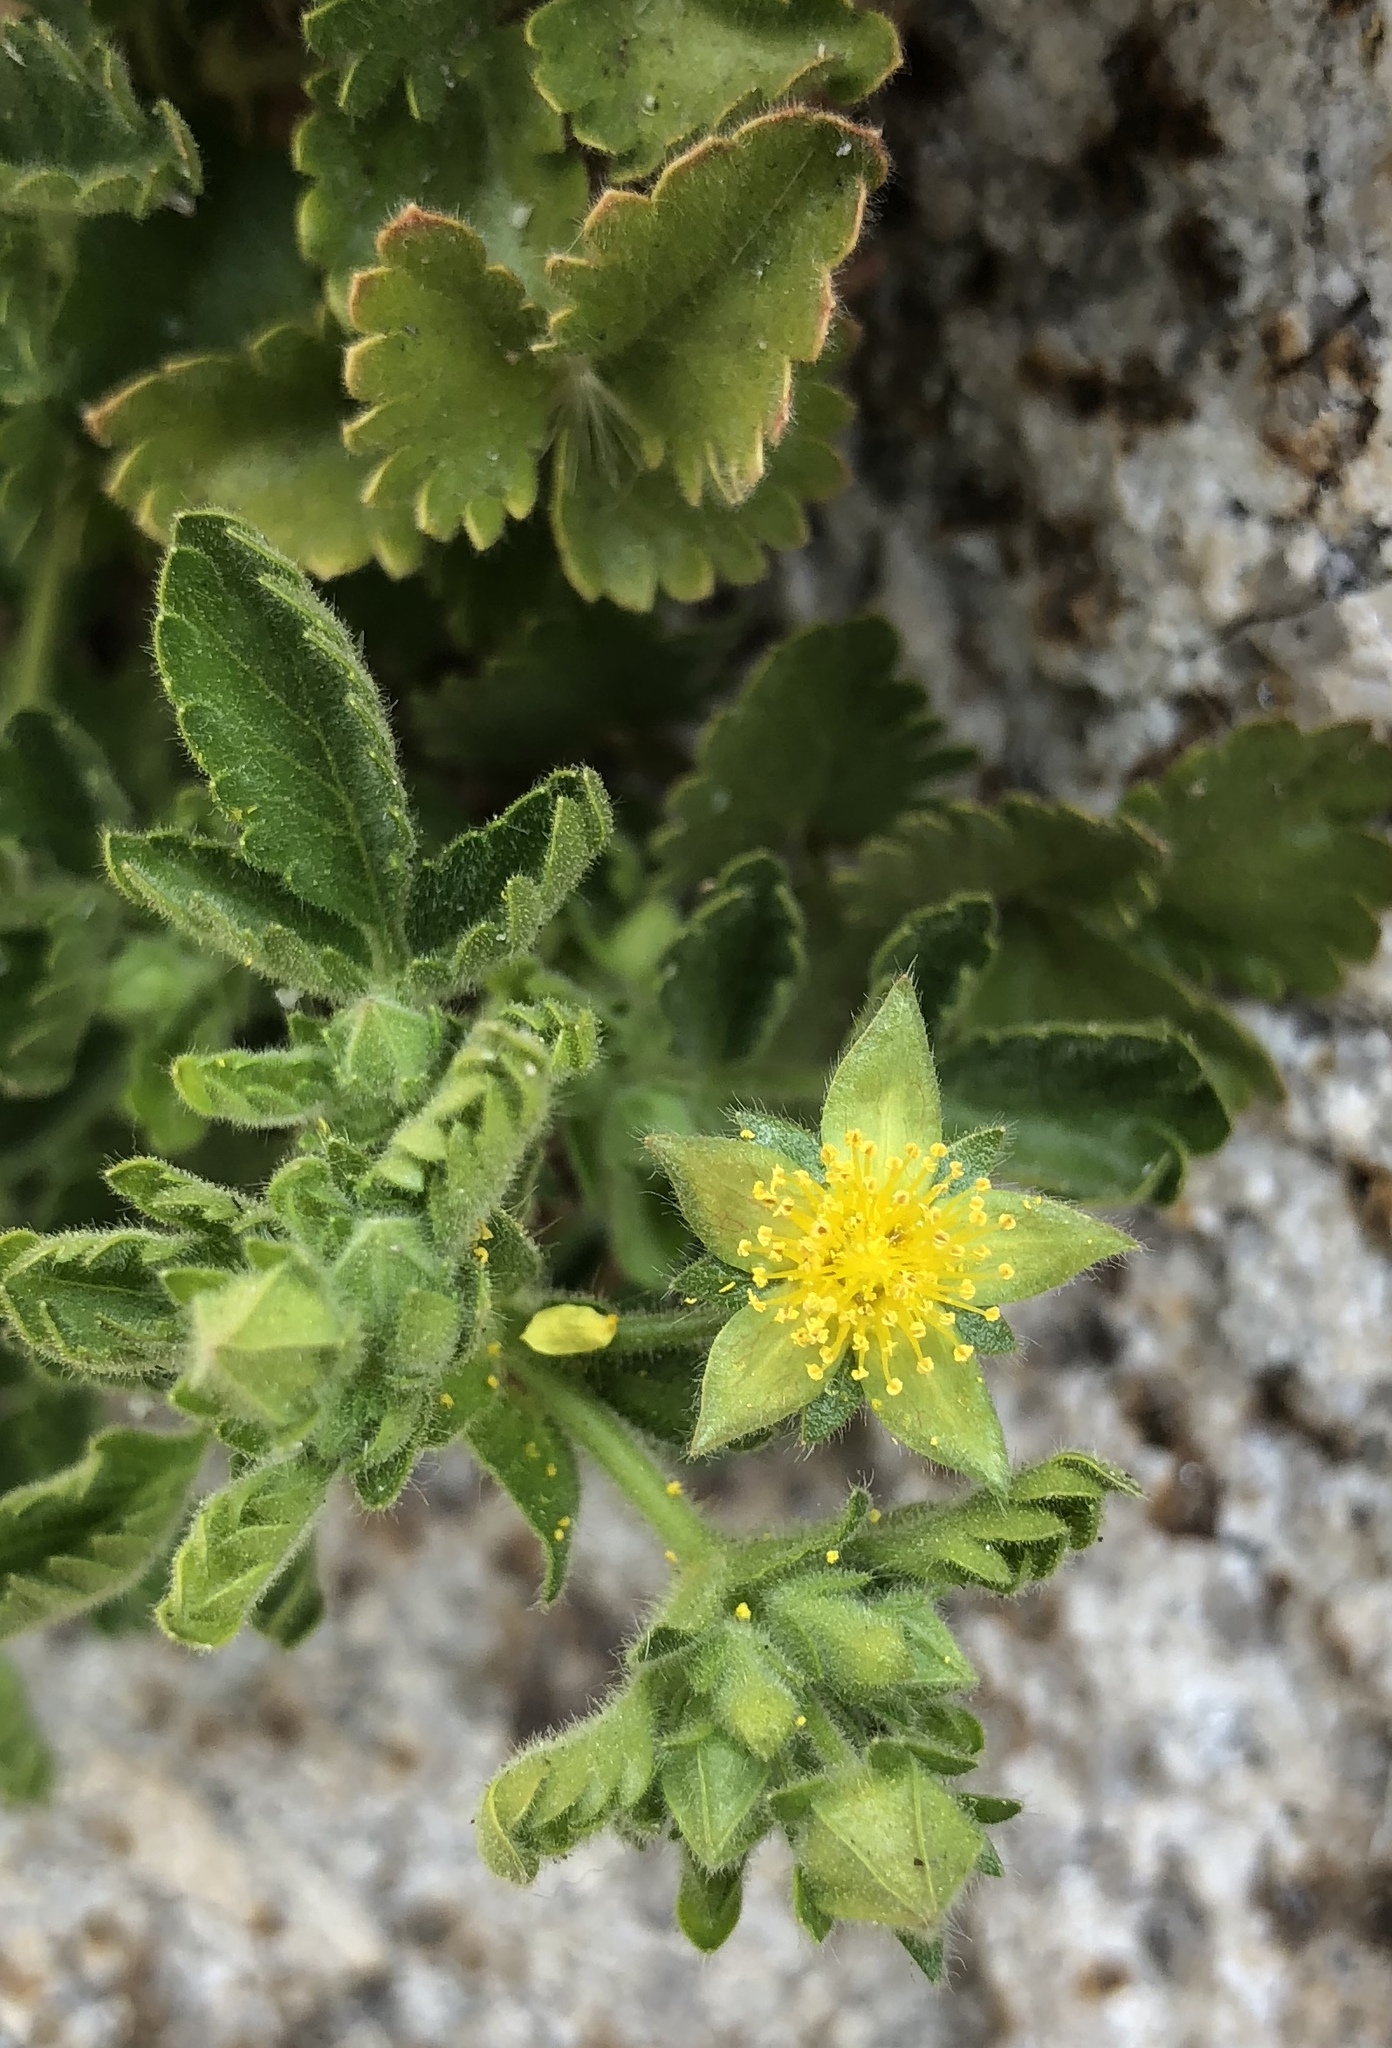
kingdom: Plantae
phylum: Tracheophyta
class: Magnoliopsida
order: Rosales
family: Rosaceae
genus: Potentilla
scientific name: Potentilla saxosa
